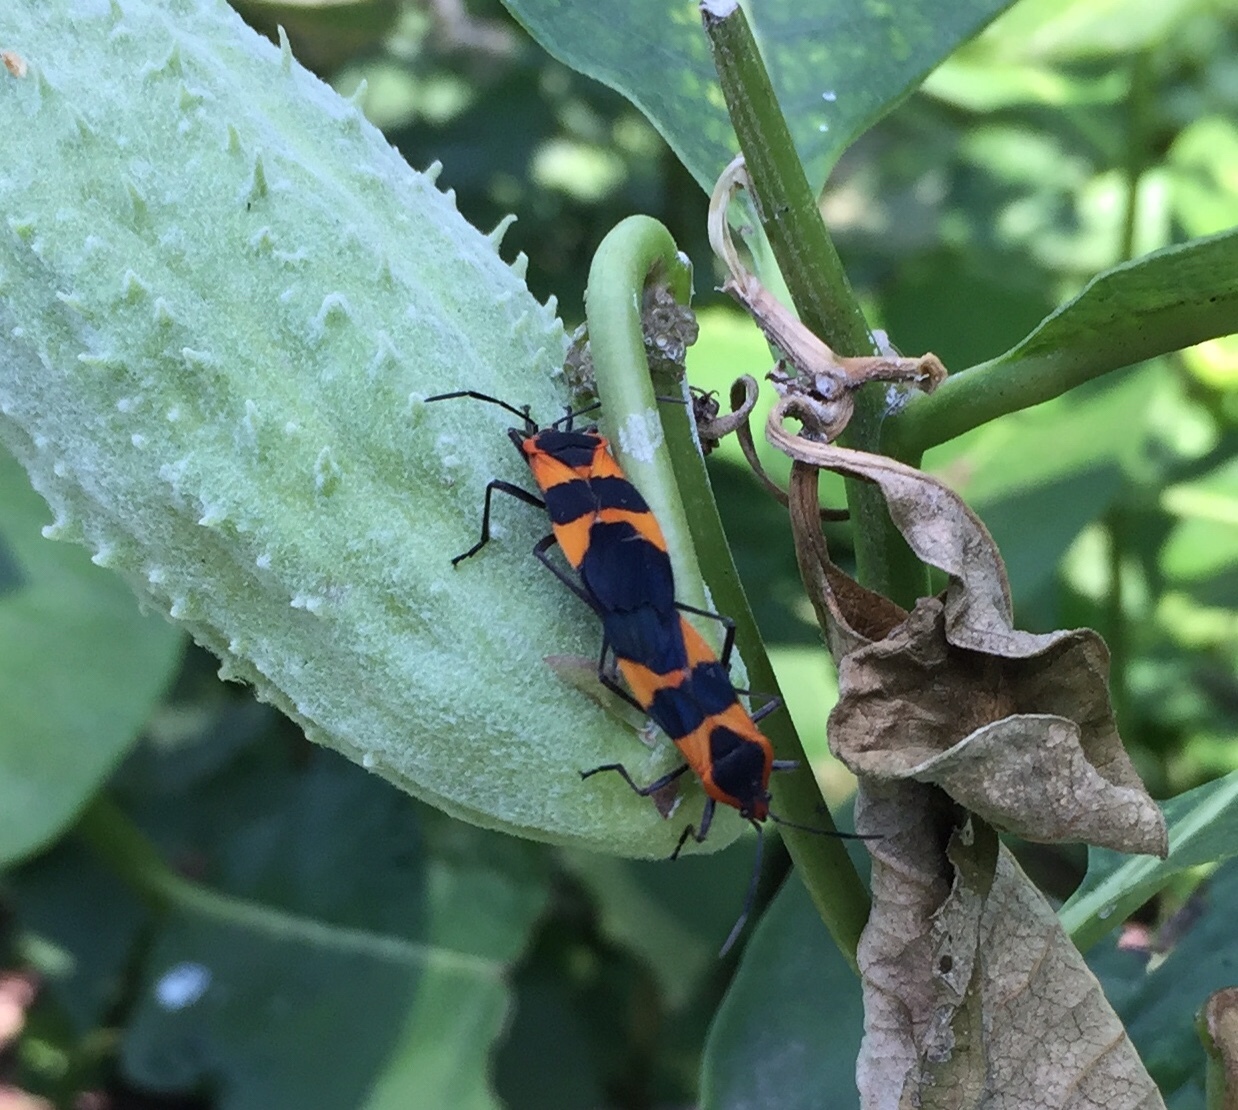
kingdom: Animalia
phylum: Arthropoda
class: Insecta
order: Hemiptera
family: Lygaeidae
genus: Oncopeltus
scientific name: Oncopeltus fasciatus
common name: Large milkweed bug
